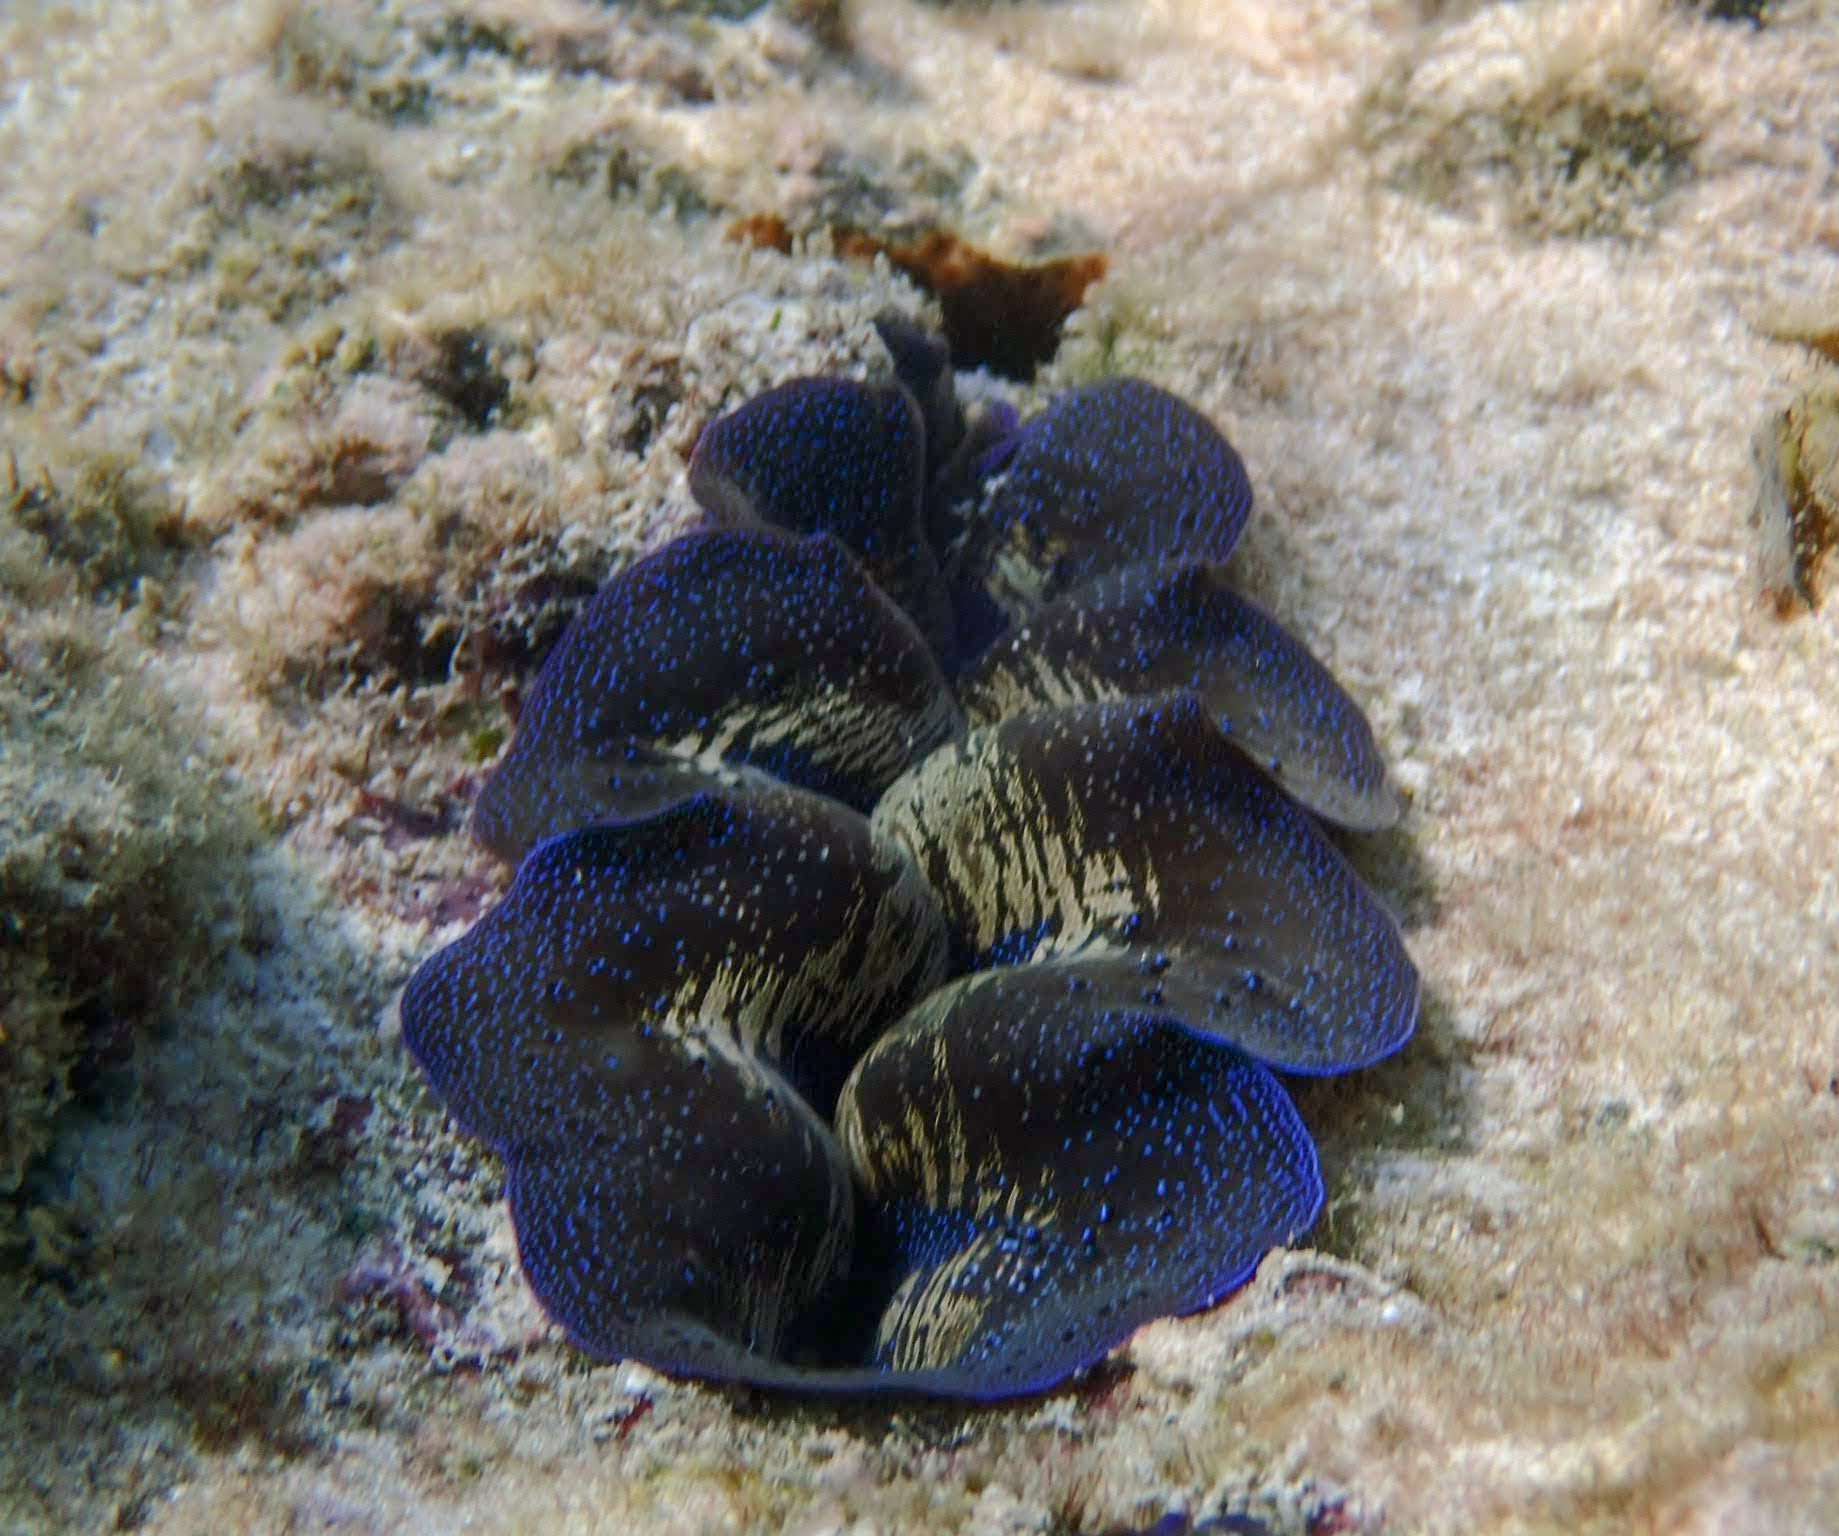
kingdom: Animalia
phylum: Mollusca
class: Bivalvia
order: Cardiida
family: Cardiidae
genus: Tridacna
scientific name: Tridacna crocea
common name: Boring clam
